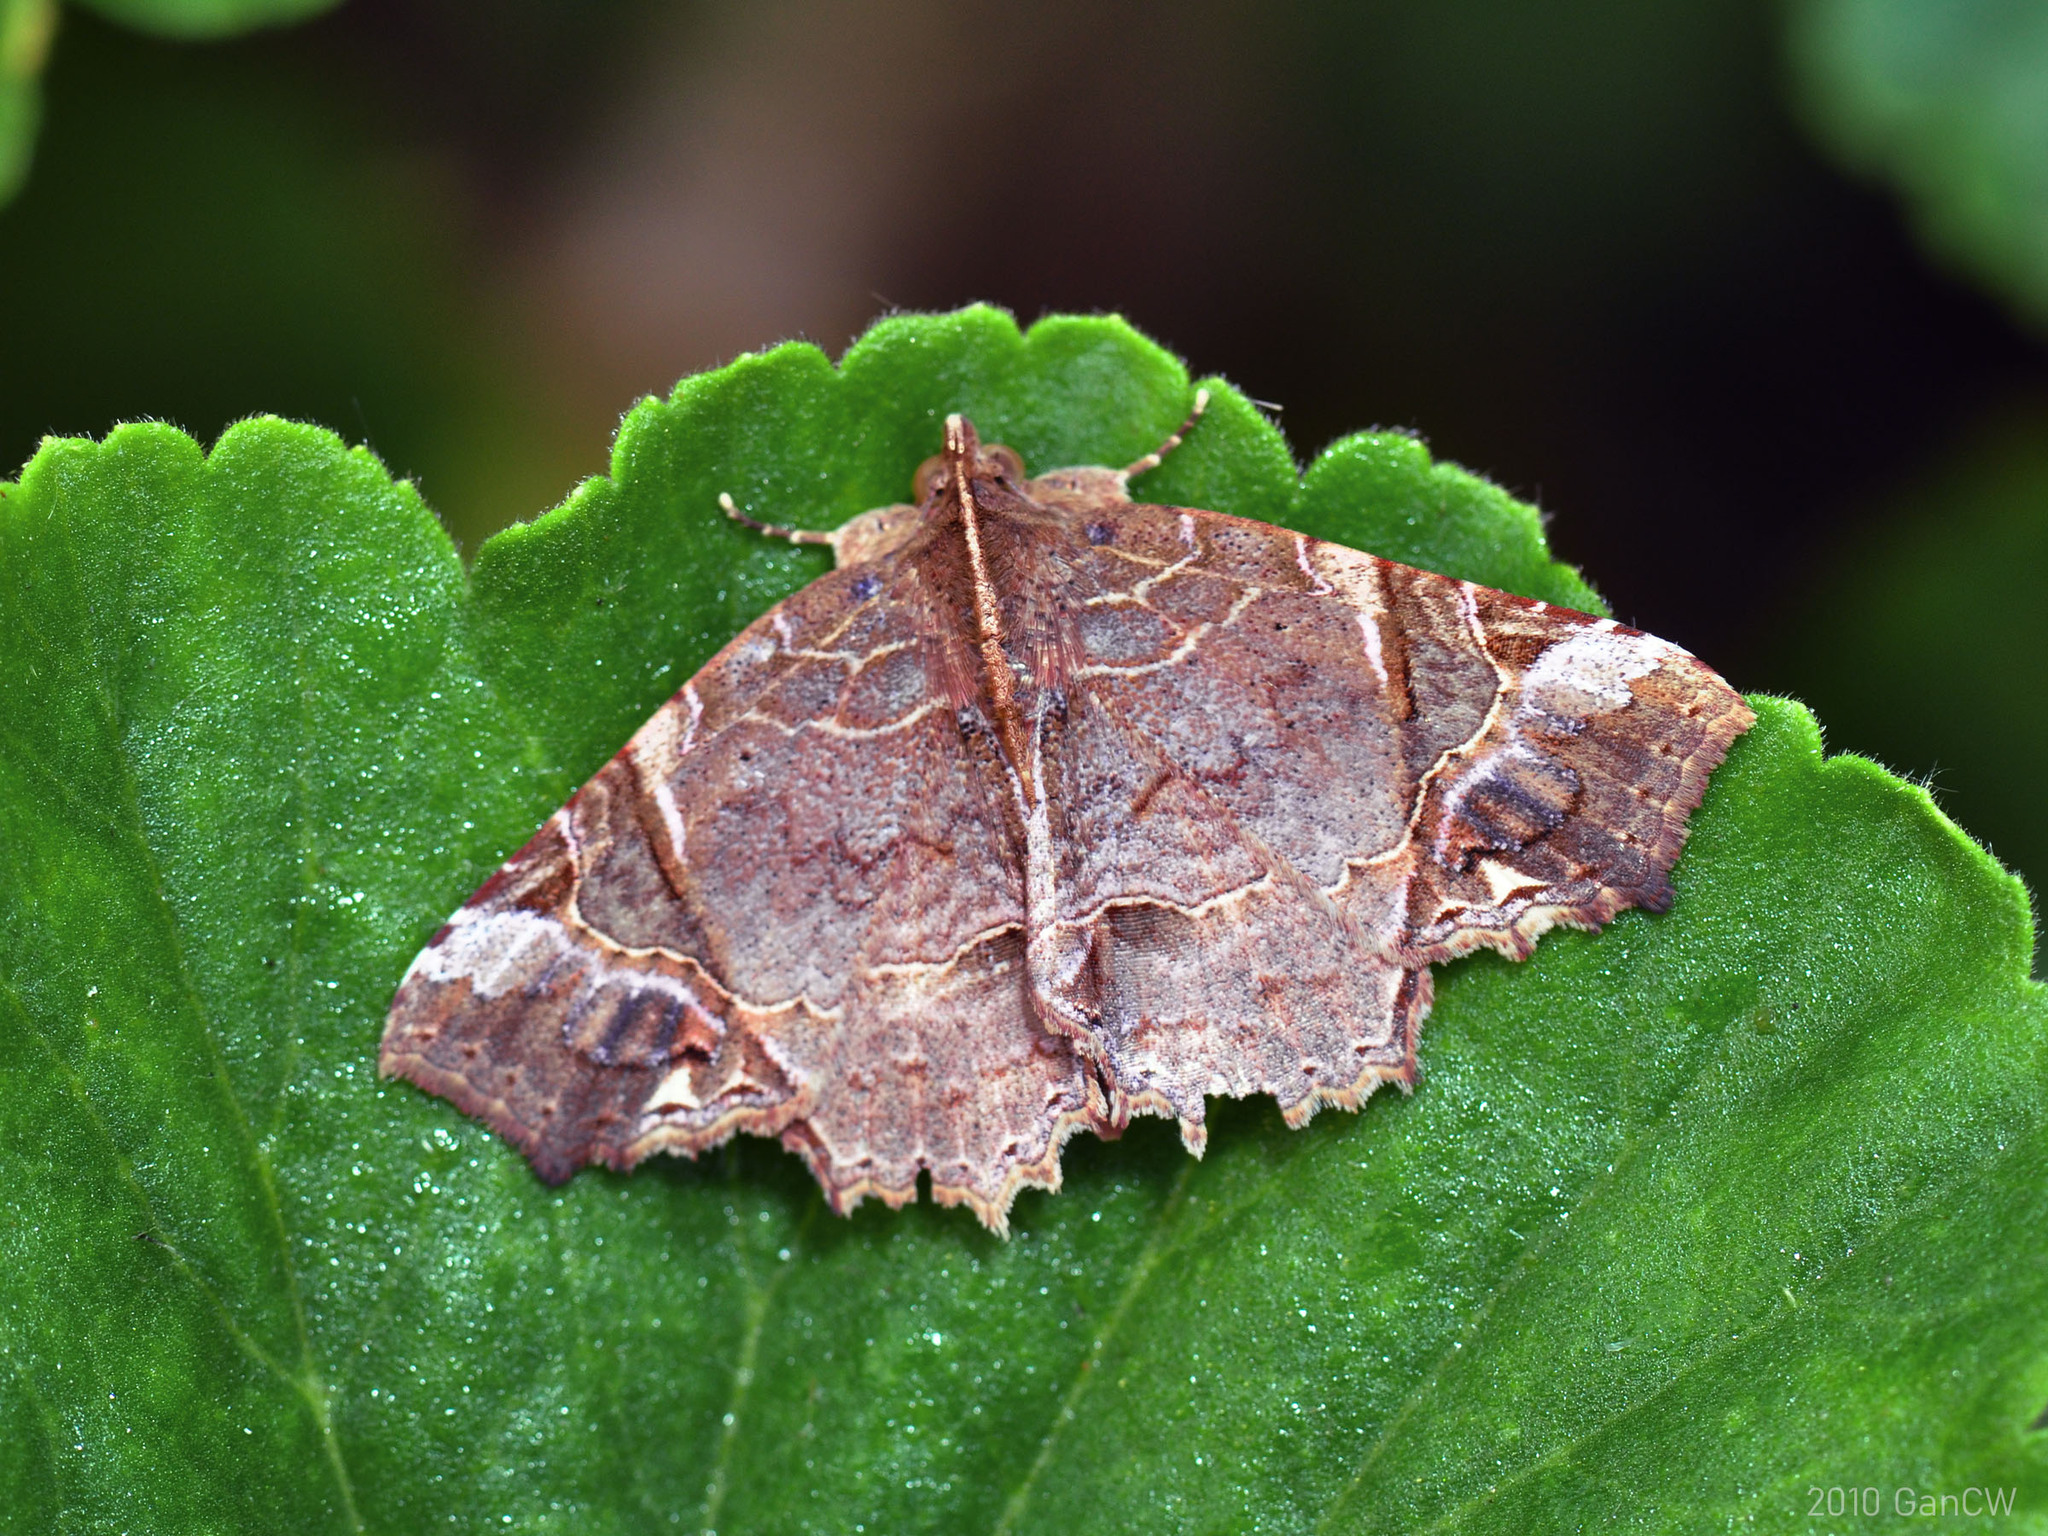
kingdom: Animalia
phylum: Arthropoda
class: Insecta
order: Lepidoptera
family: Erebidae
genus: Tamba
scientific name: Tamba diaphora
